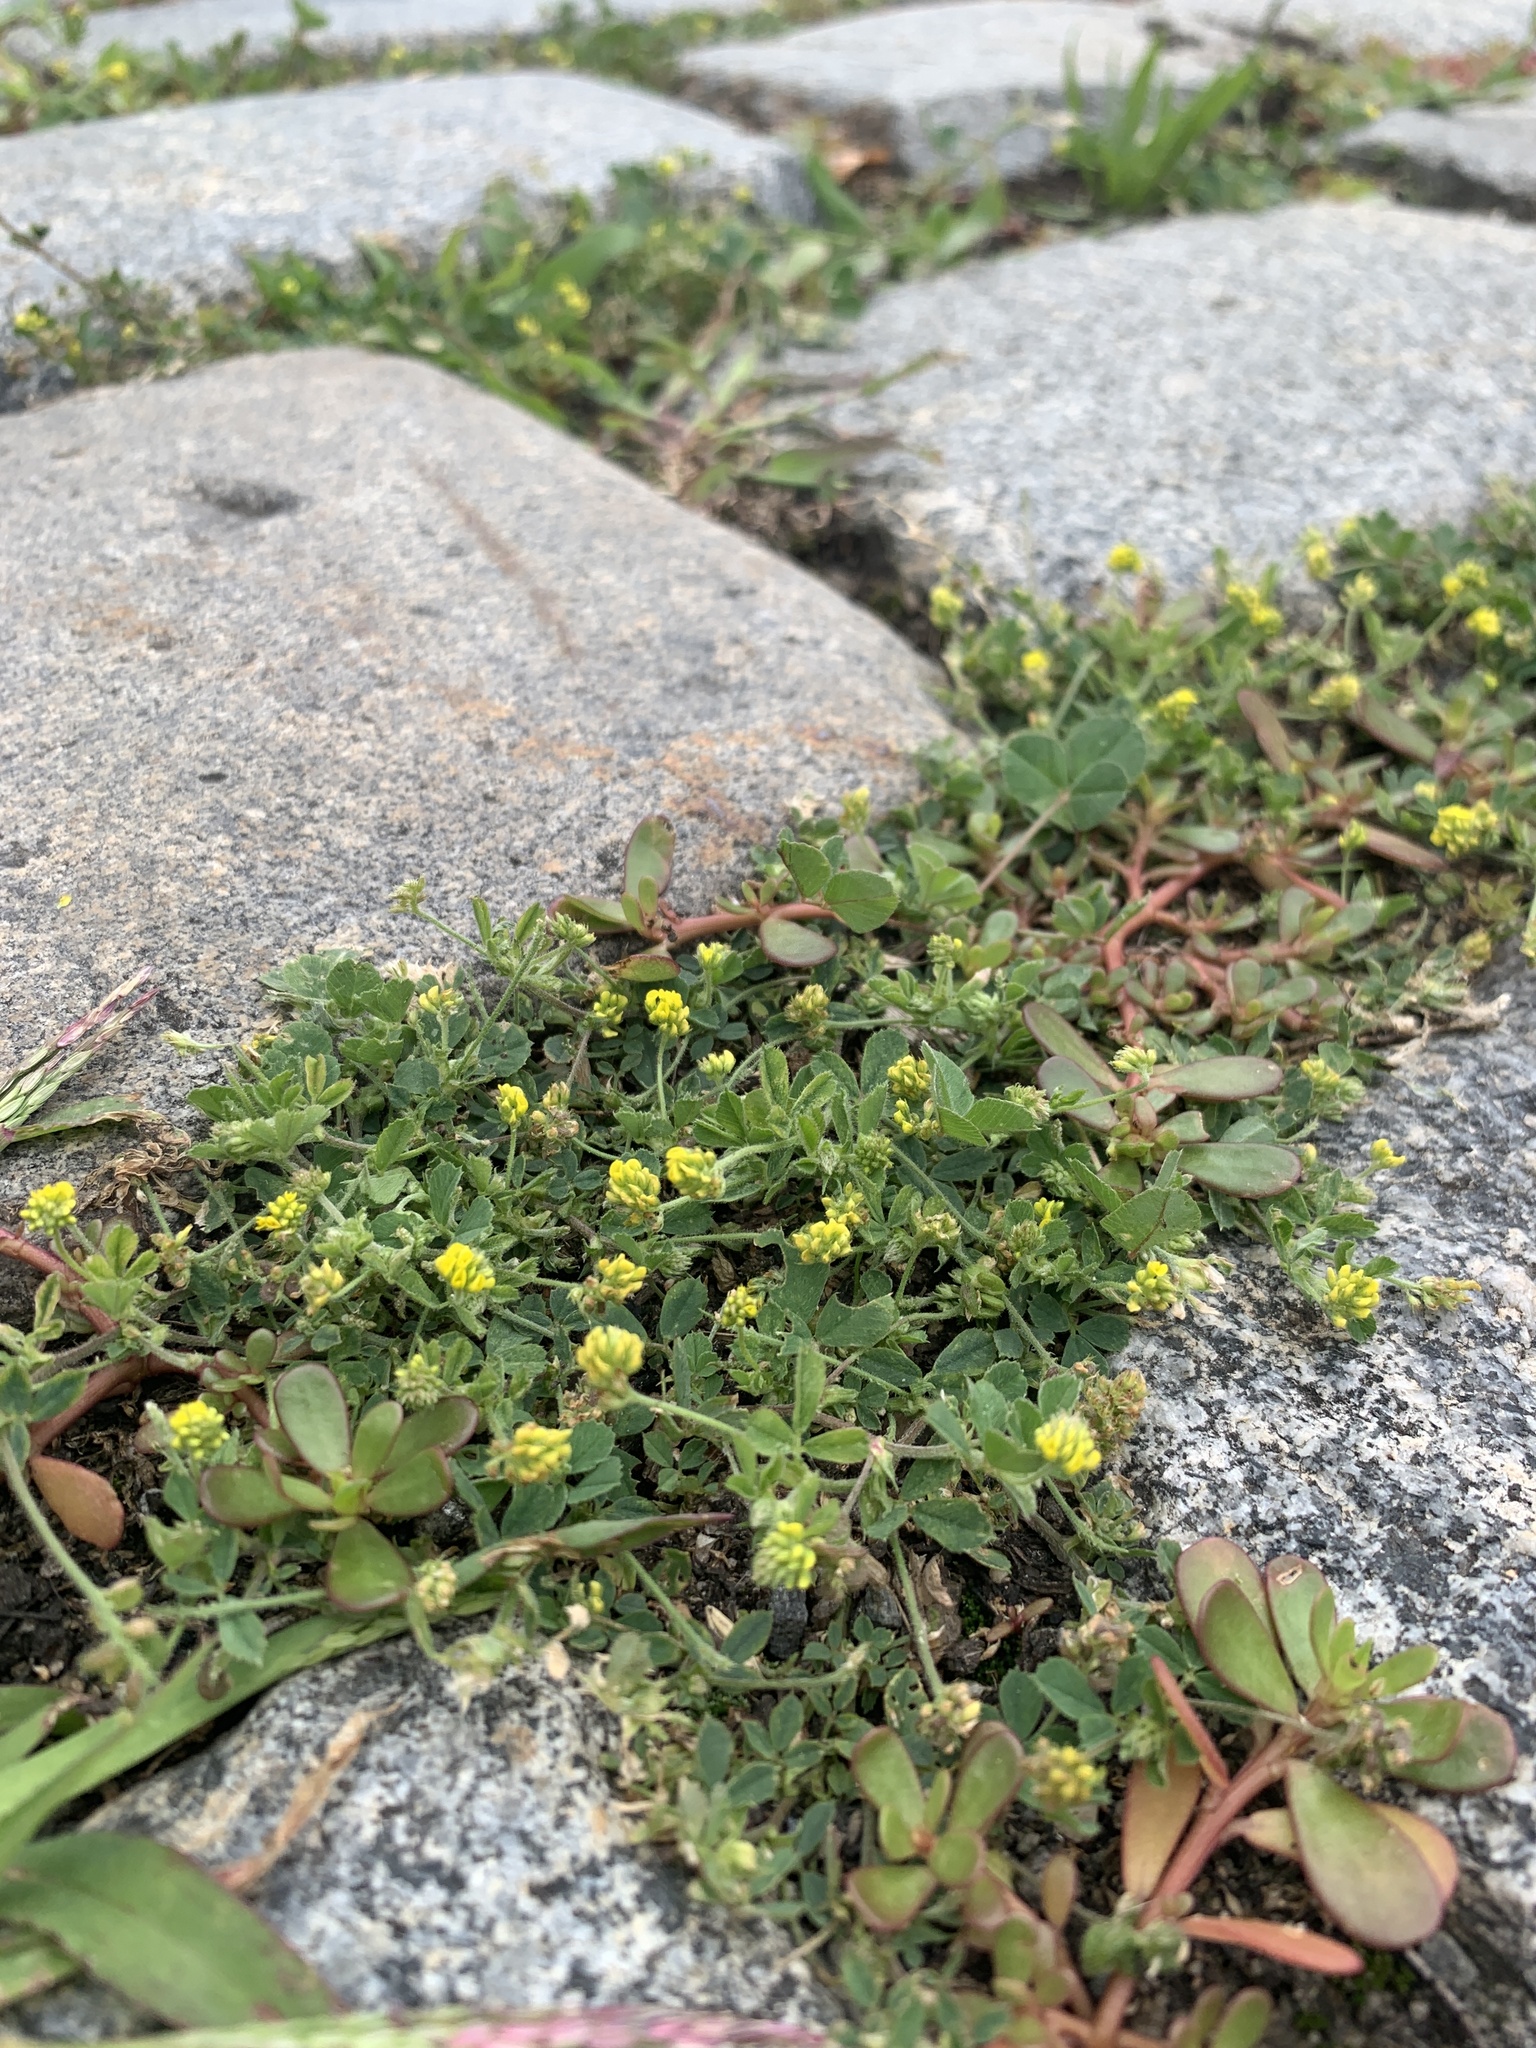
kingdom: Plantae
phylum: Tracheophyta
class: Magnoliopsida
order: Fabales
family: Fabaceae
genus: Medicago
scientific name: Medicago lupulina
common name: Black medick
